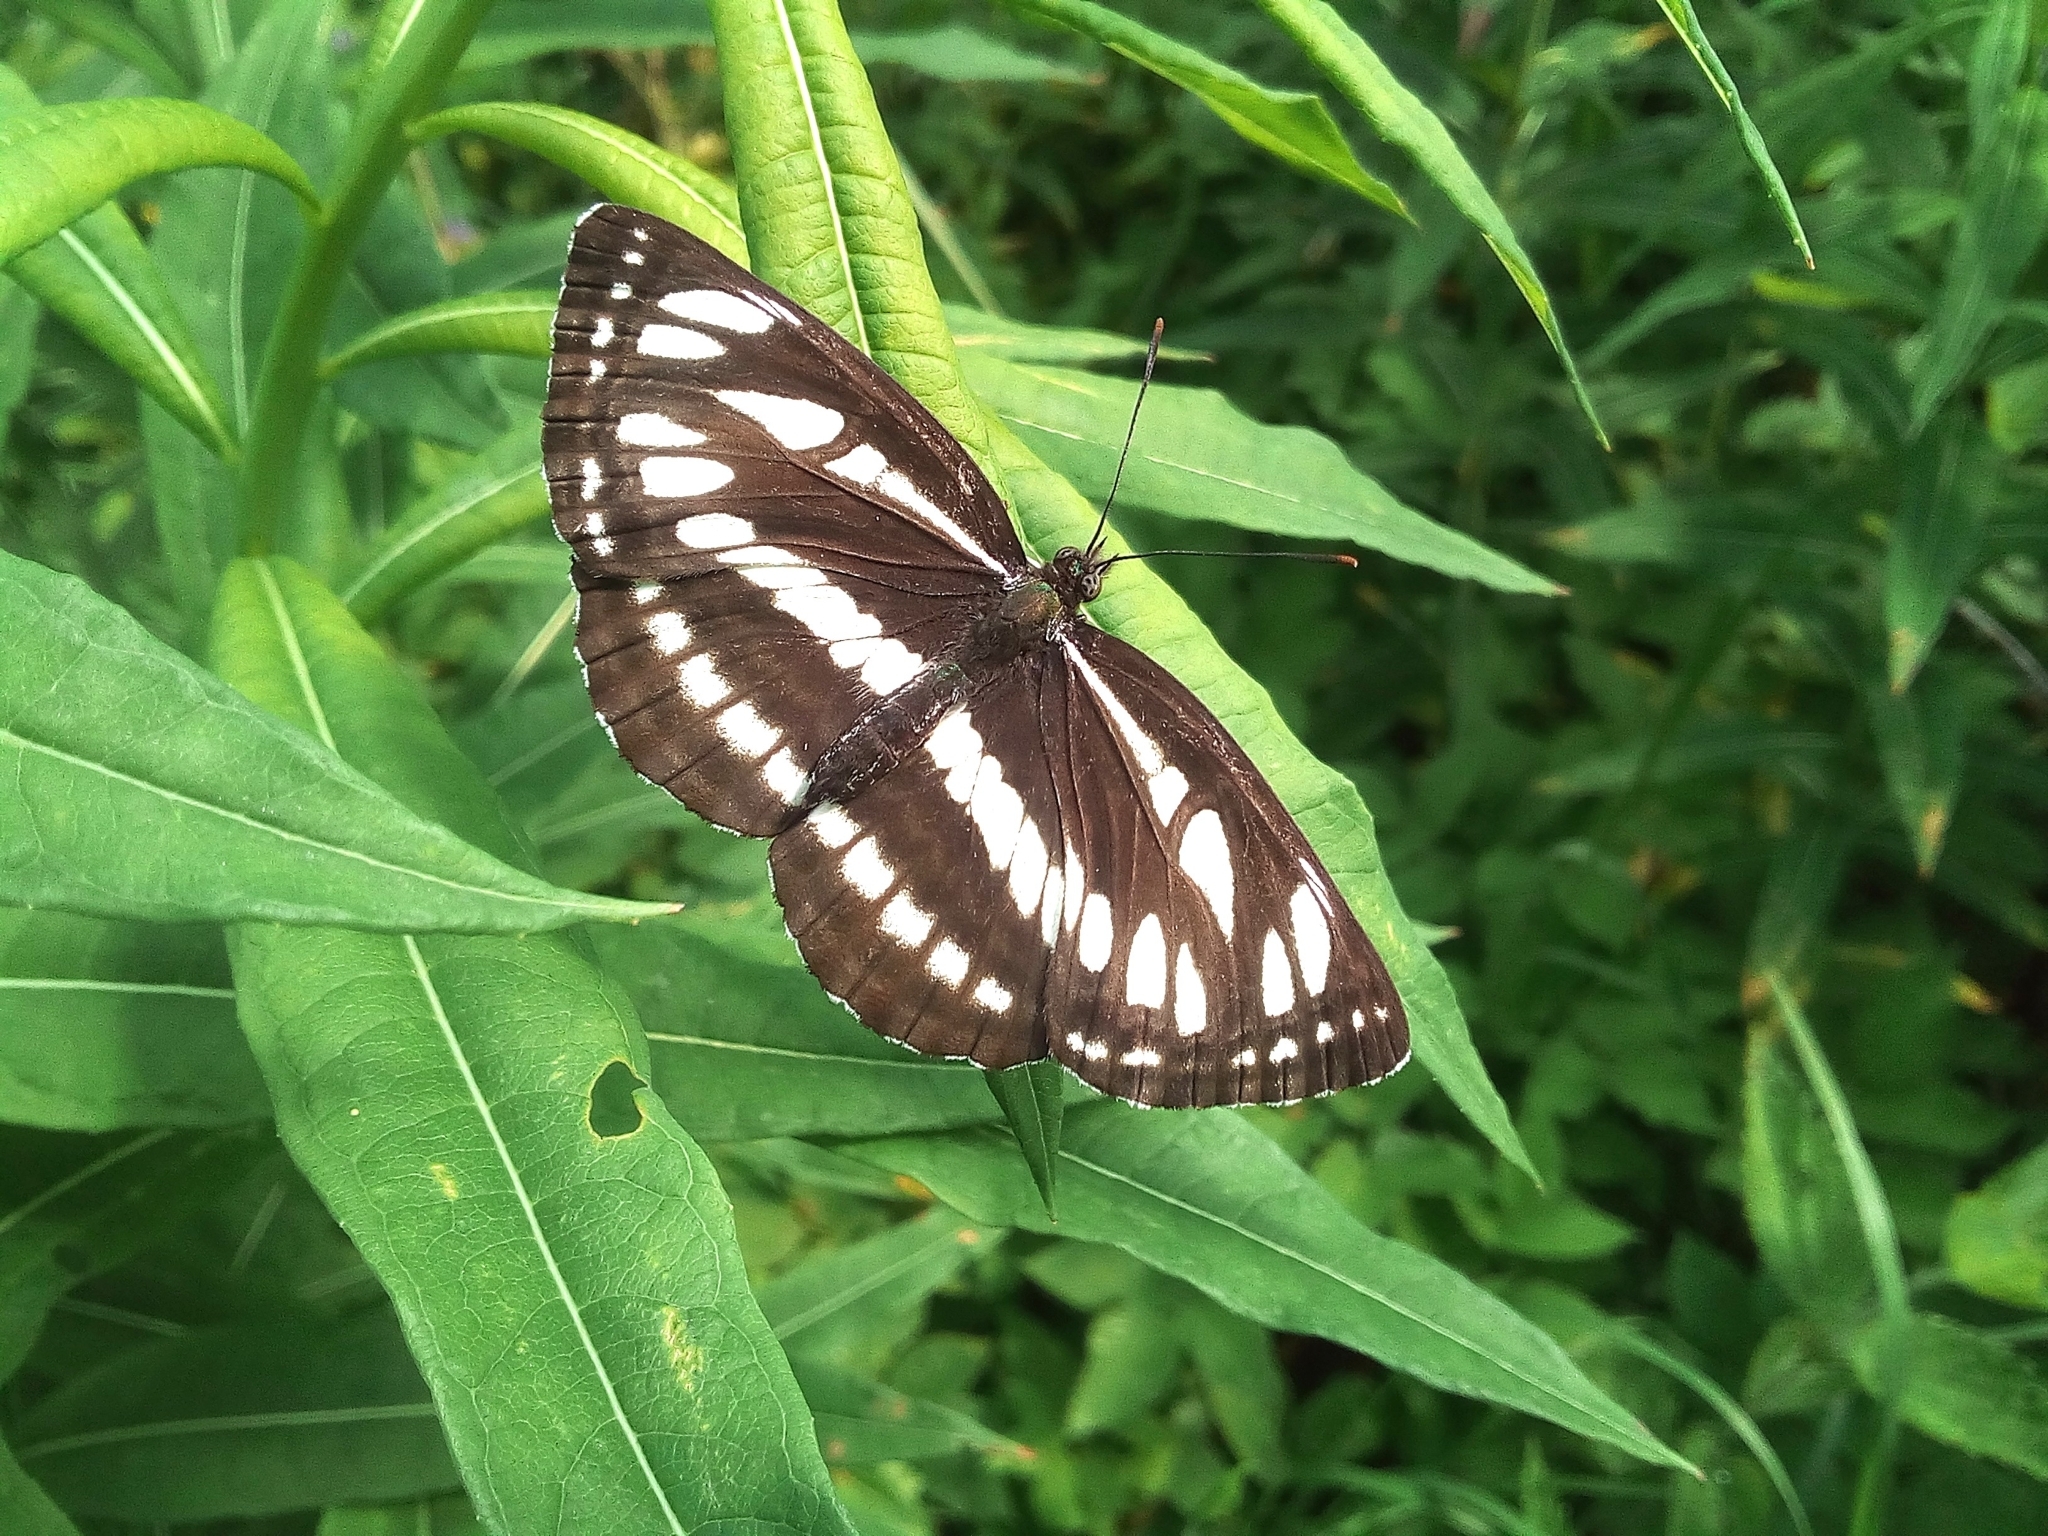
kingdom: Animalia
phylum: Arthropoda
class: Insecta
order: Lepidoptera
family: Nymphalidae
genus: Neptis
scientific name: Neptis sappho
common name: Common glider
